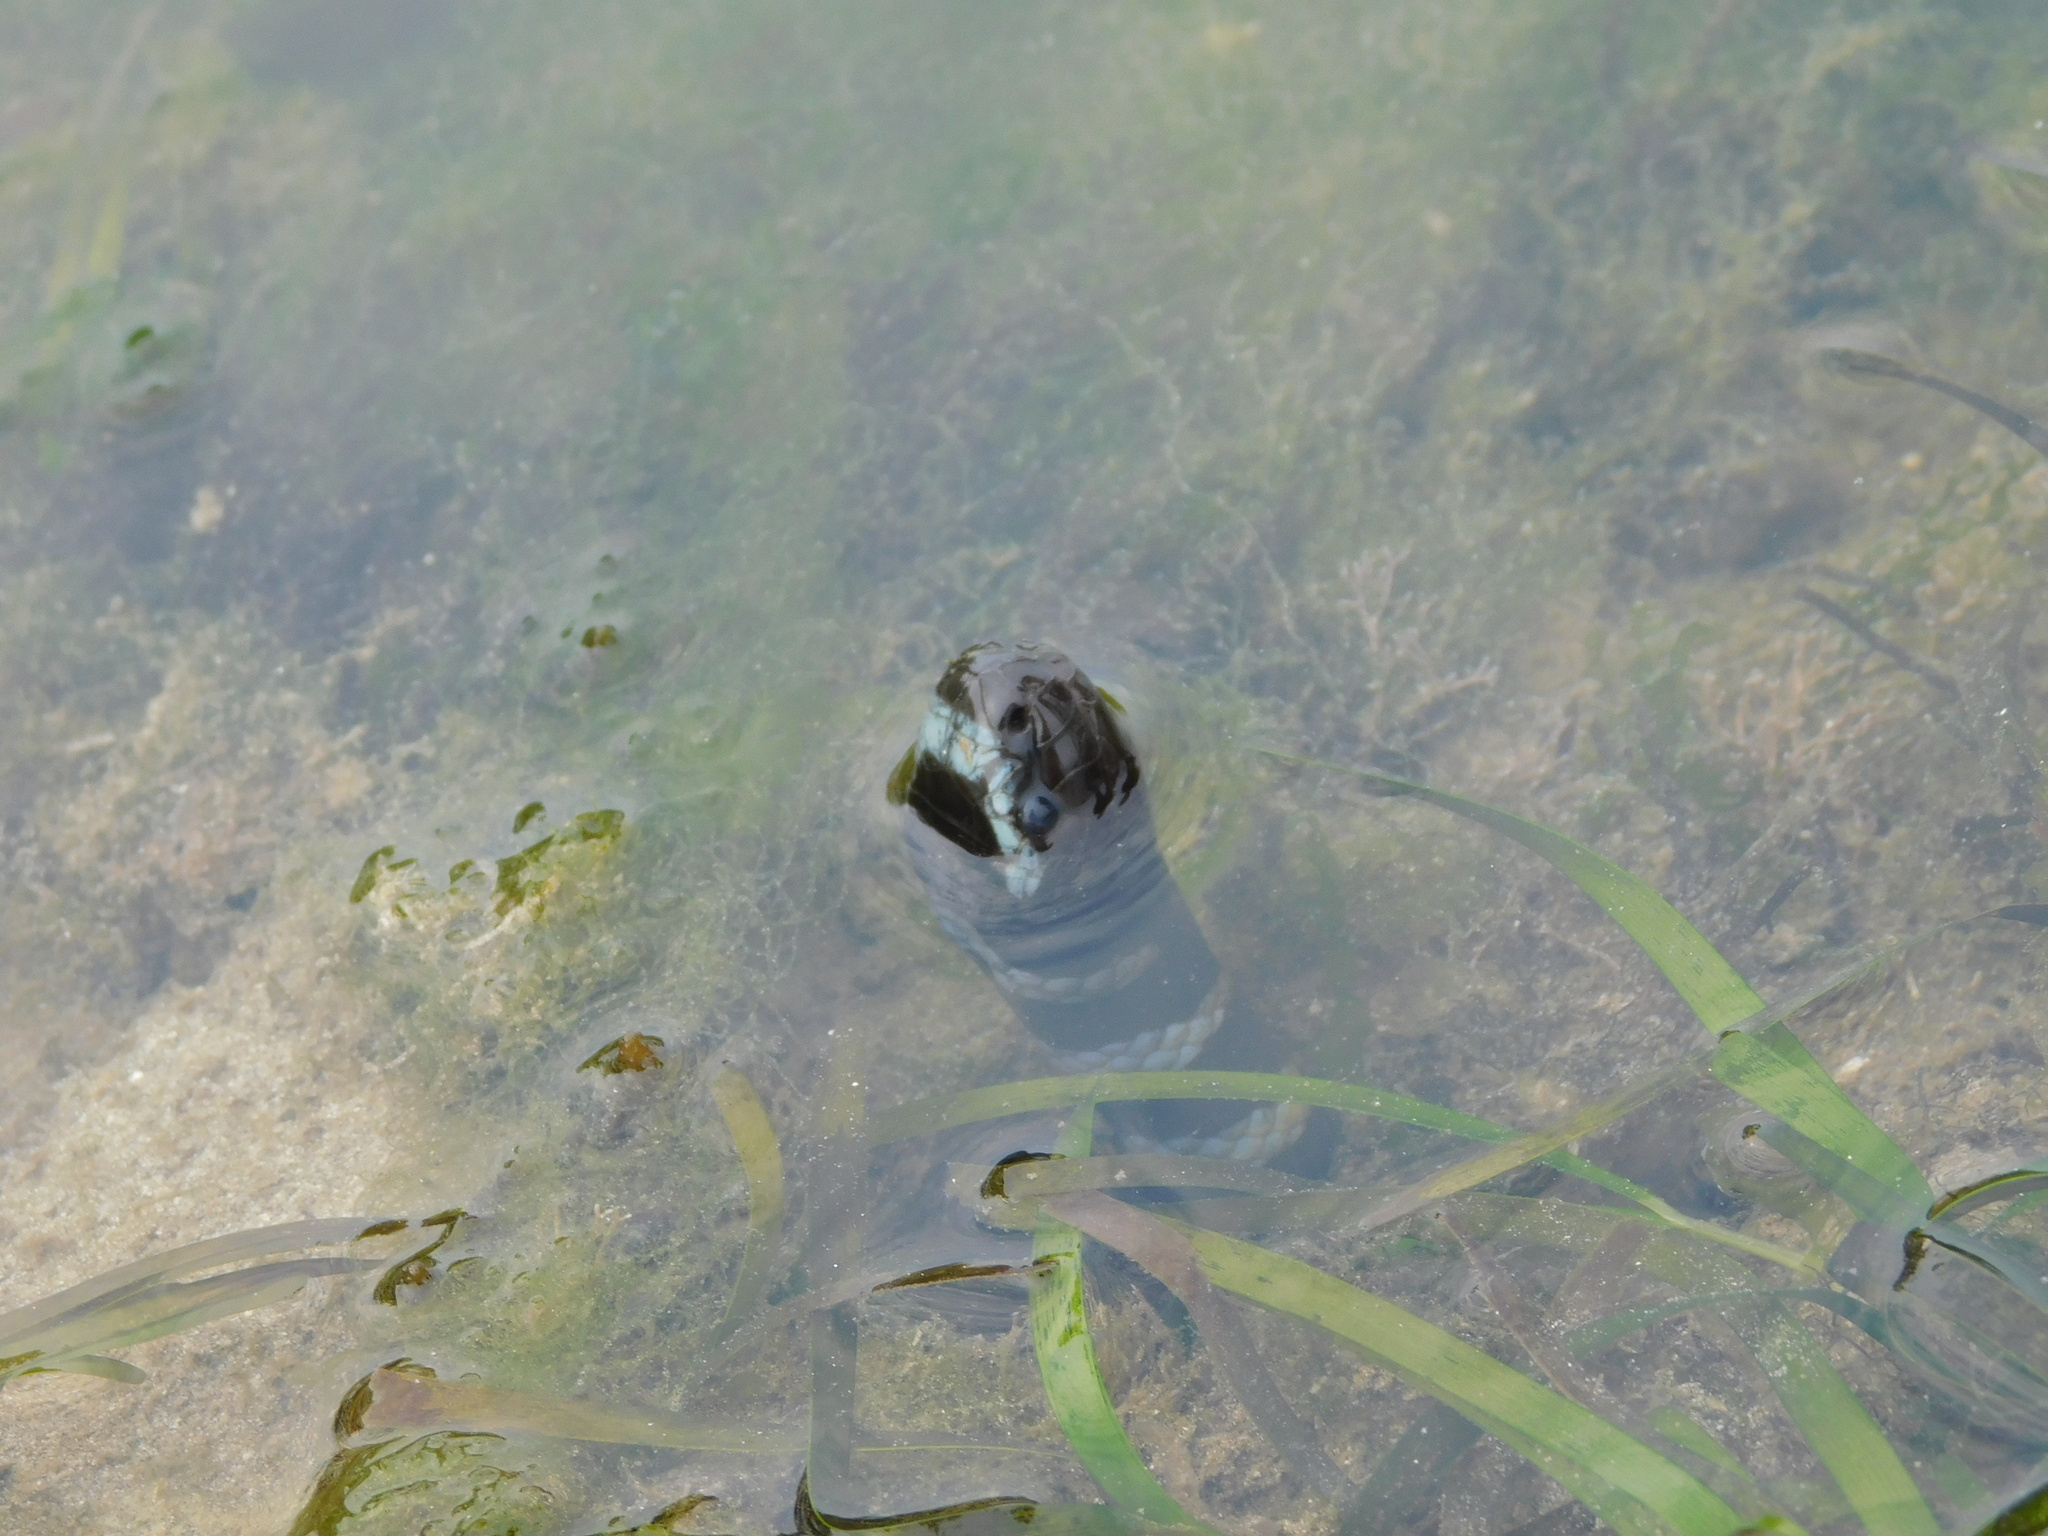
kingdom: Animalia
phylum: Chordata
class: Squamata
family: Elapidae
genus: Laticauda
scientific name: Laticauda laticaudata
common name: Blue-banded sea krait
